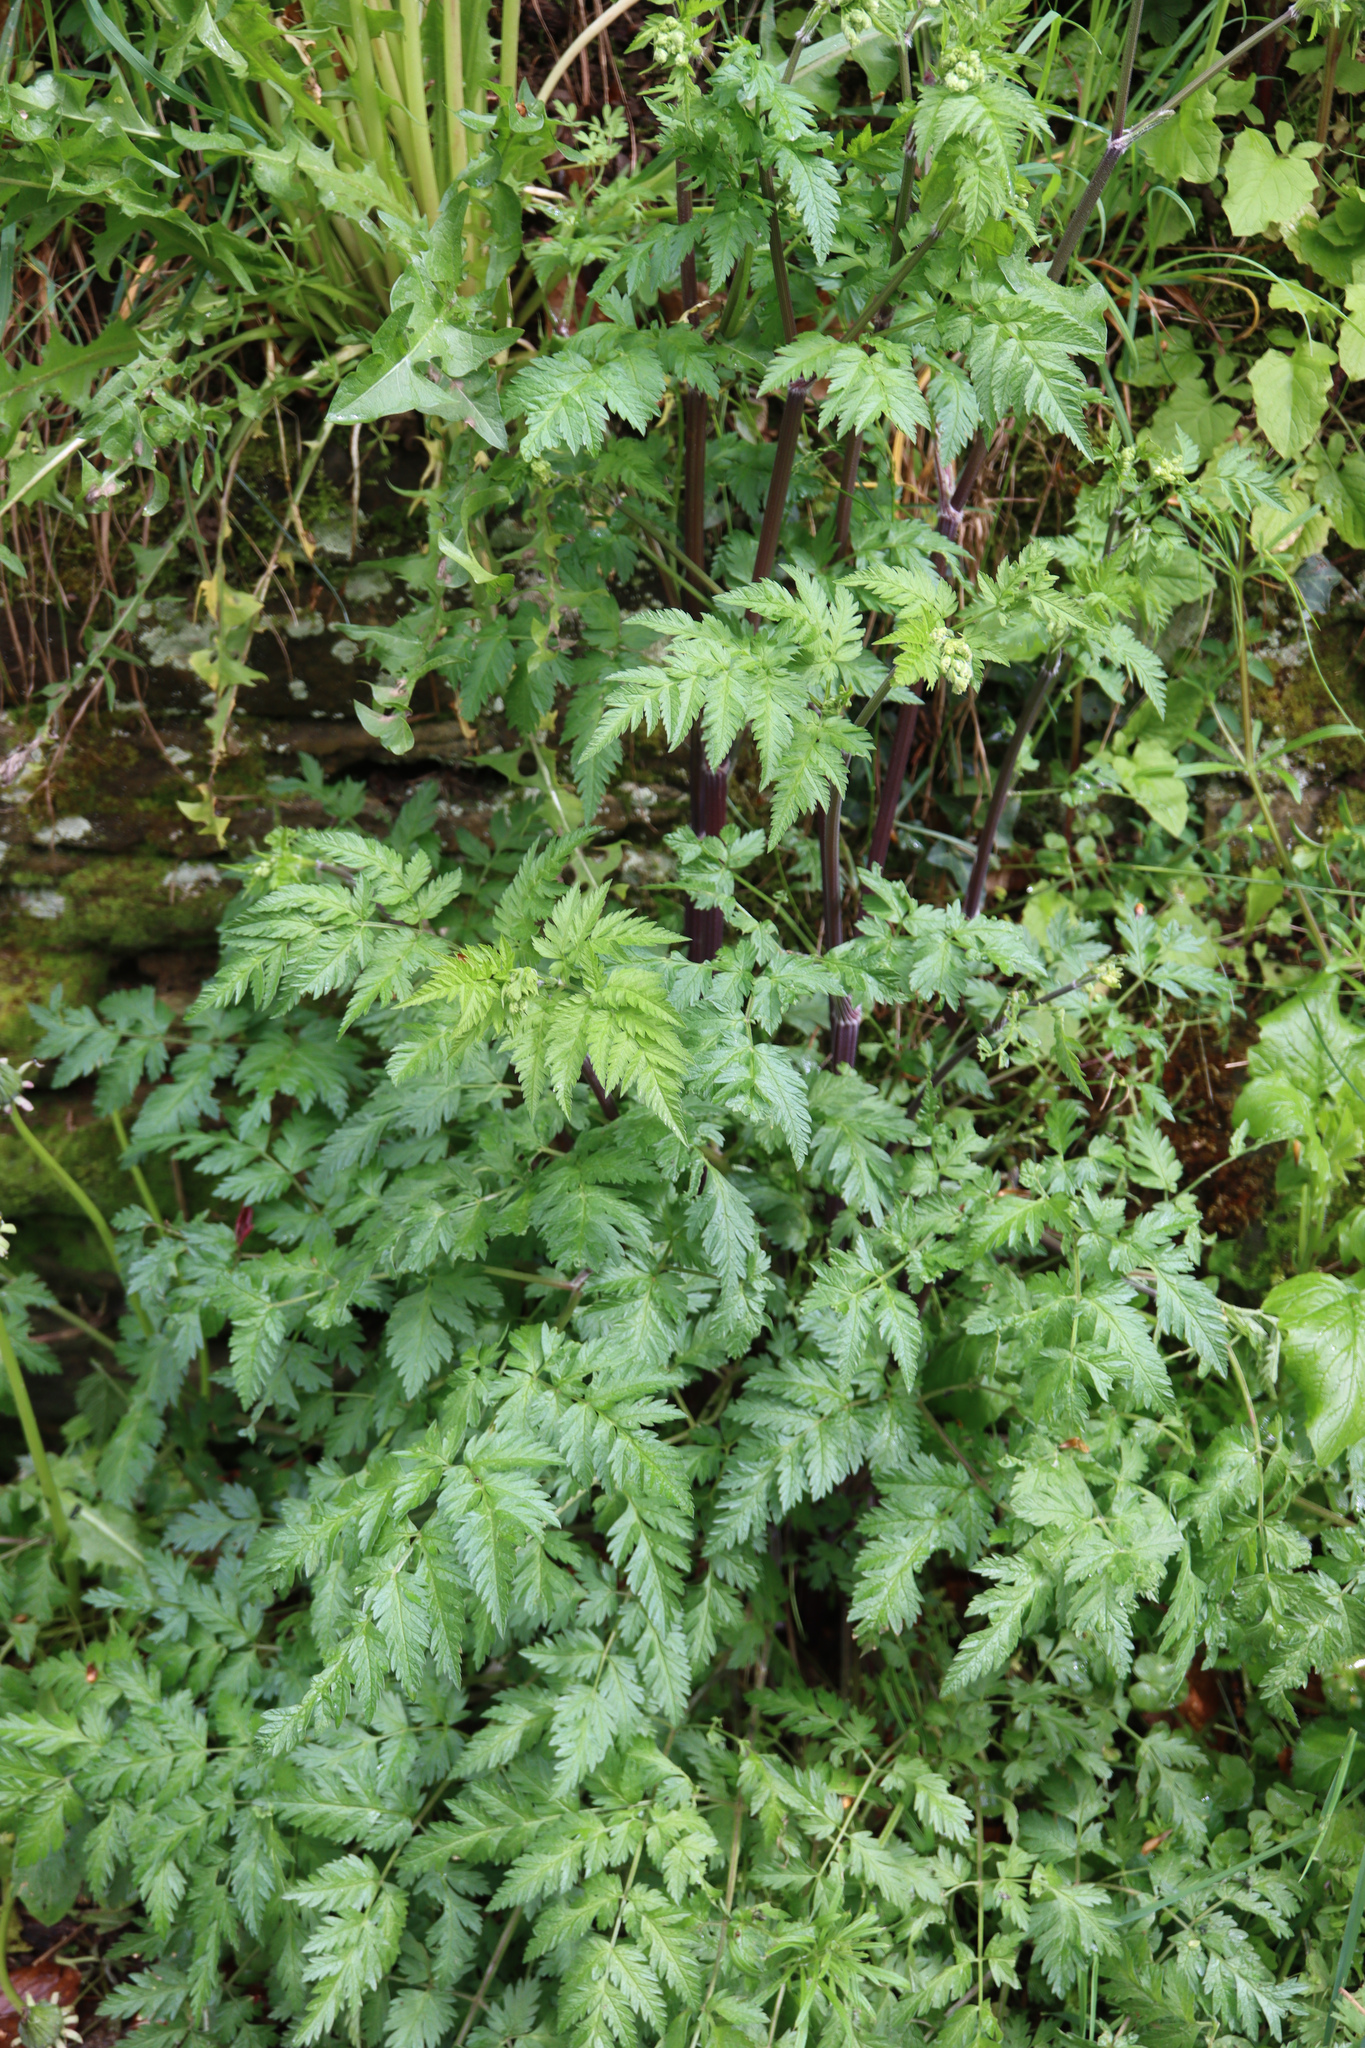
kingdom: Plantae
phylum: Tracheophyta
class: Magnoliopsida
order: Apiales
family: Apiaceae
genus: Anthriscus
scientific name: Anthriscus sylvestris
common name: Cow parsley
